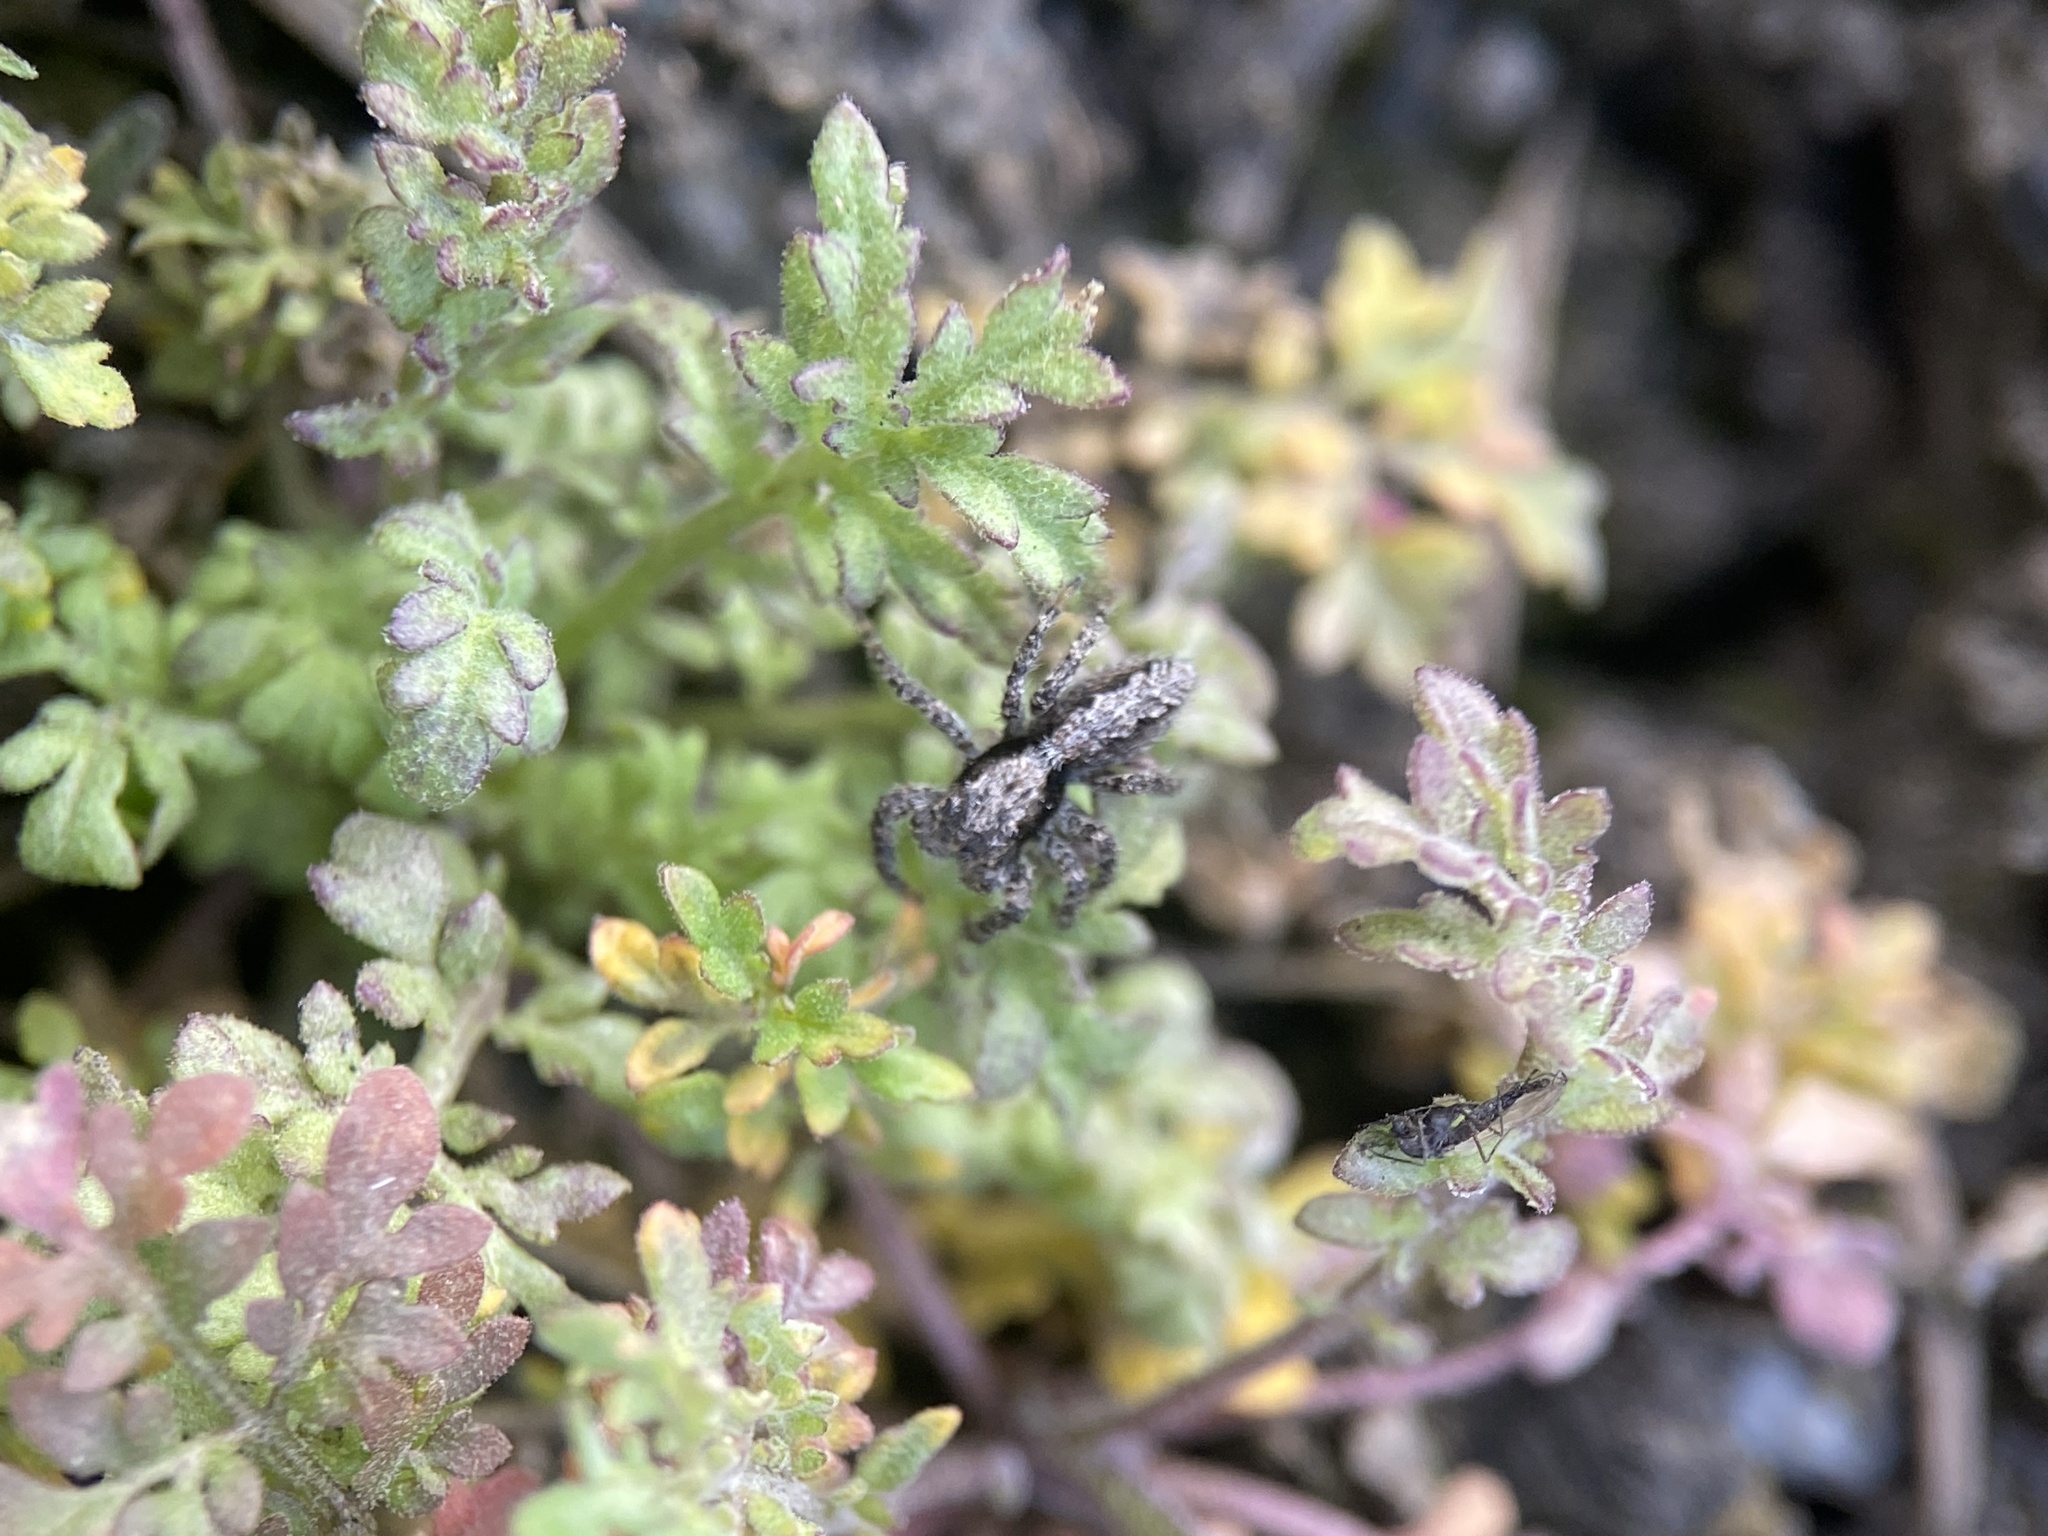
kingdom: Animalia
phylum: Arthropoda
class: Arachnida
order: Araneae
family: Salticidae
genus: Platycryptus
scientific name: Platycryptus californicus
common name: Jumping spiders
